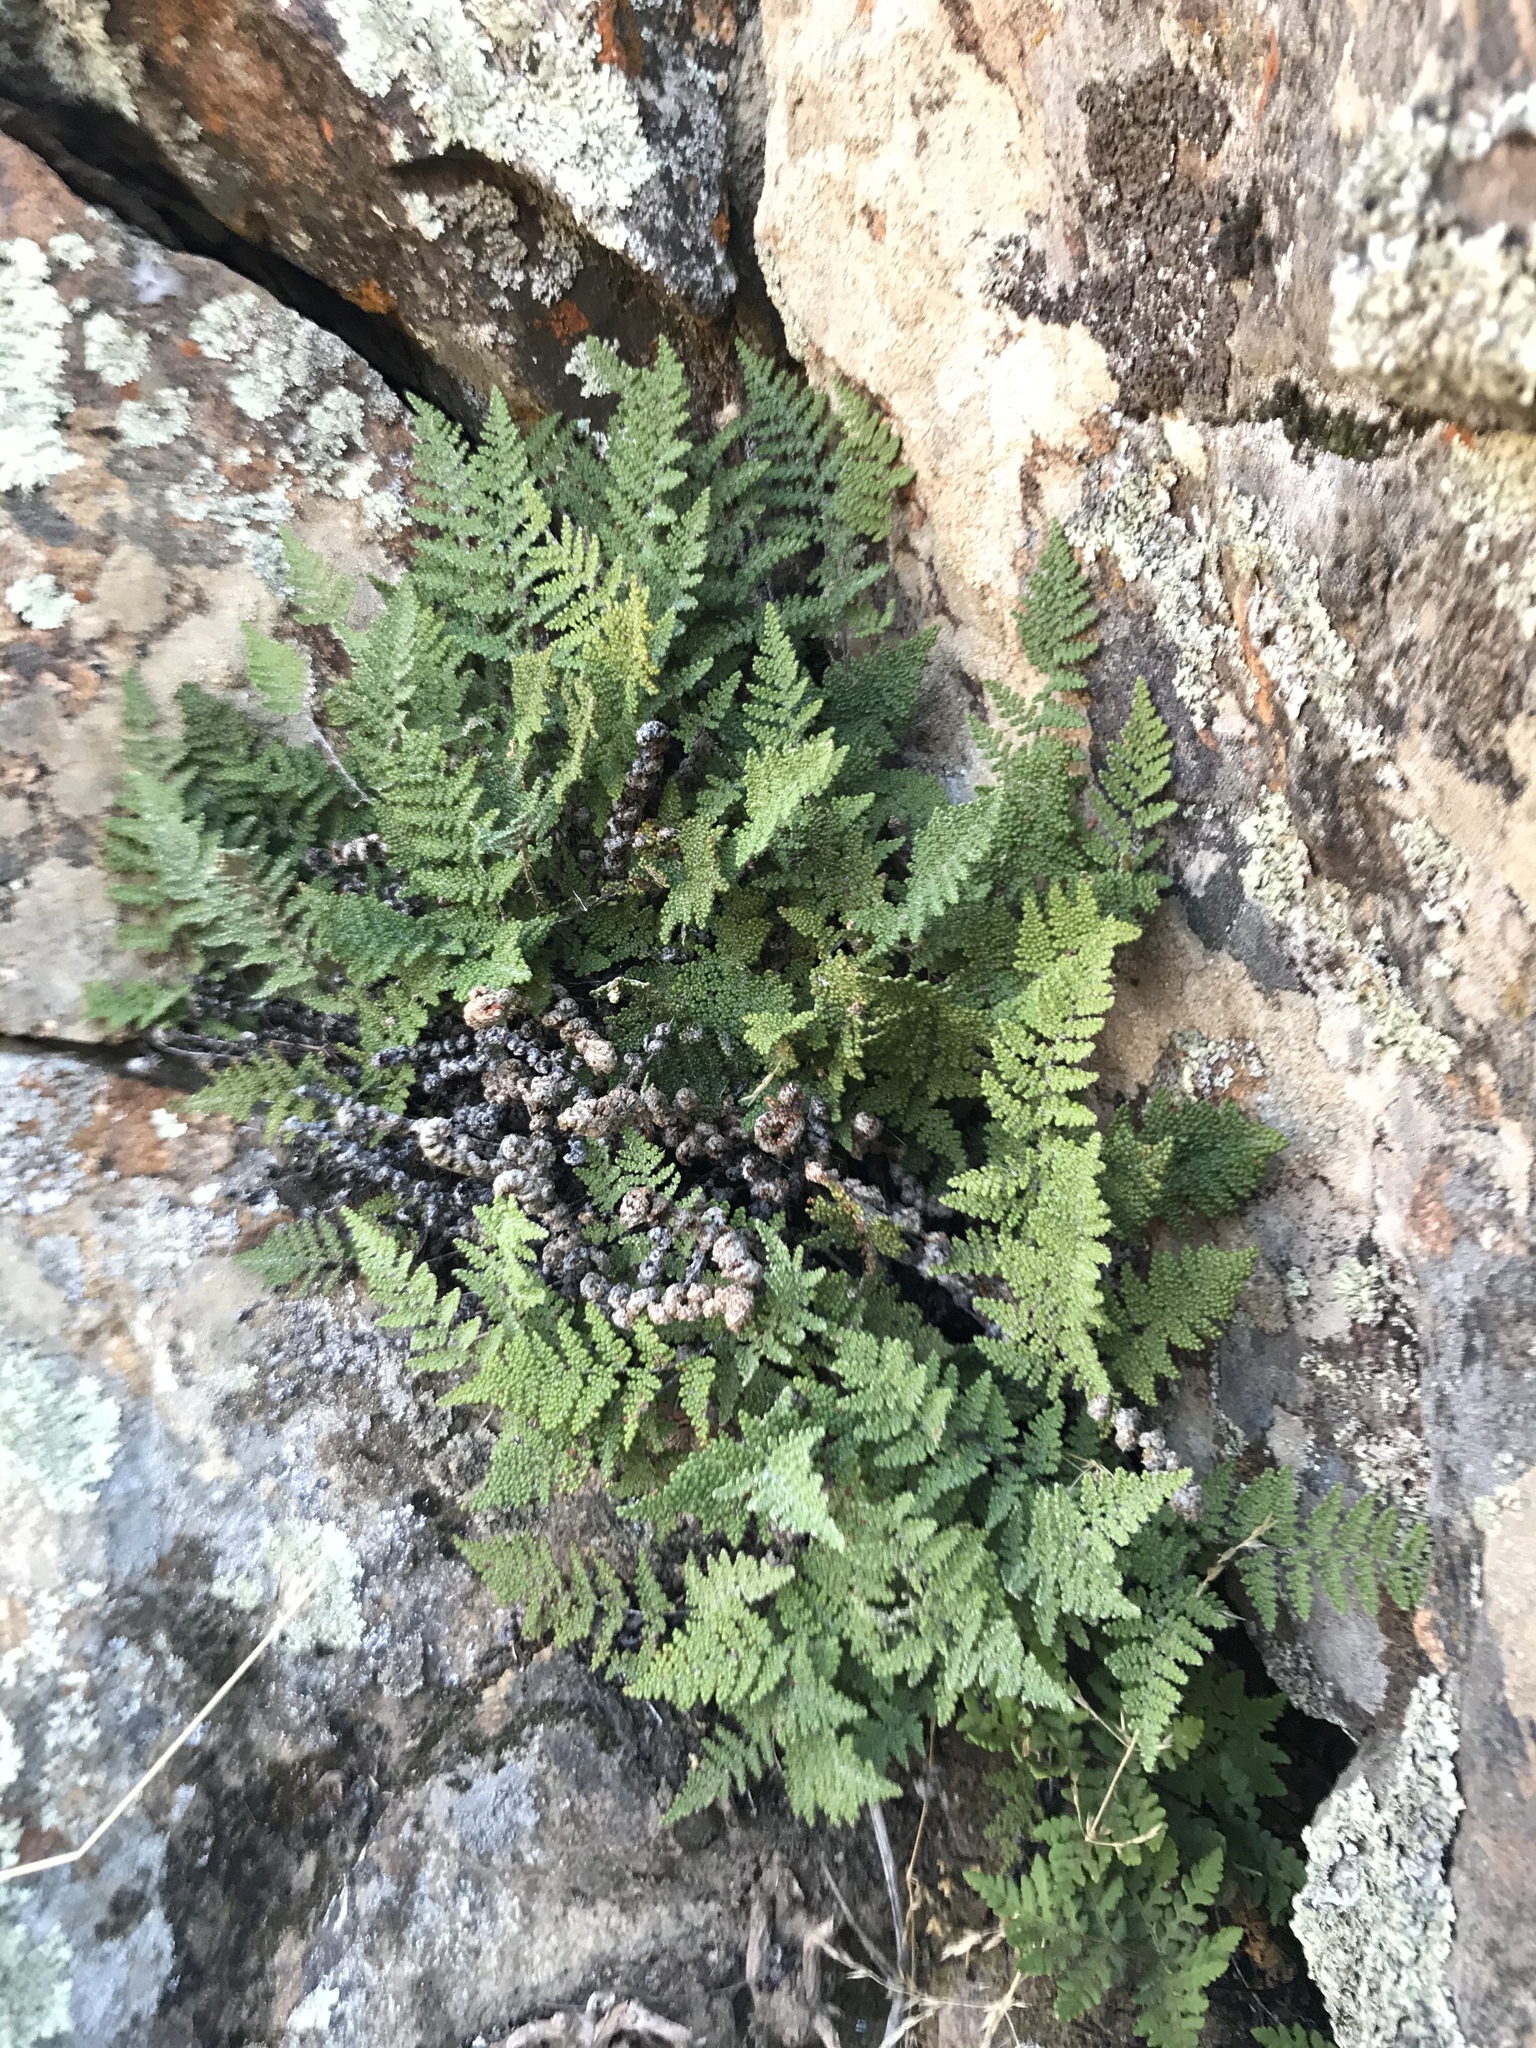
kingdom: Plantae
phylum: Tracheophyta
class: Polypodiopsida
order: Polypodiales
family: Pteridaceae
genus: Myriopteris
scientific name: Myriopteris clevelandii
